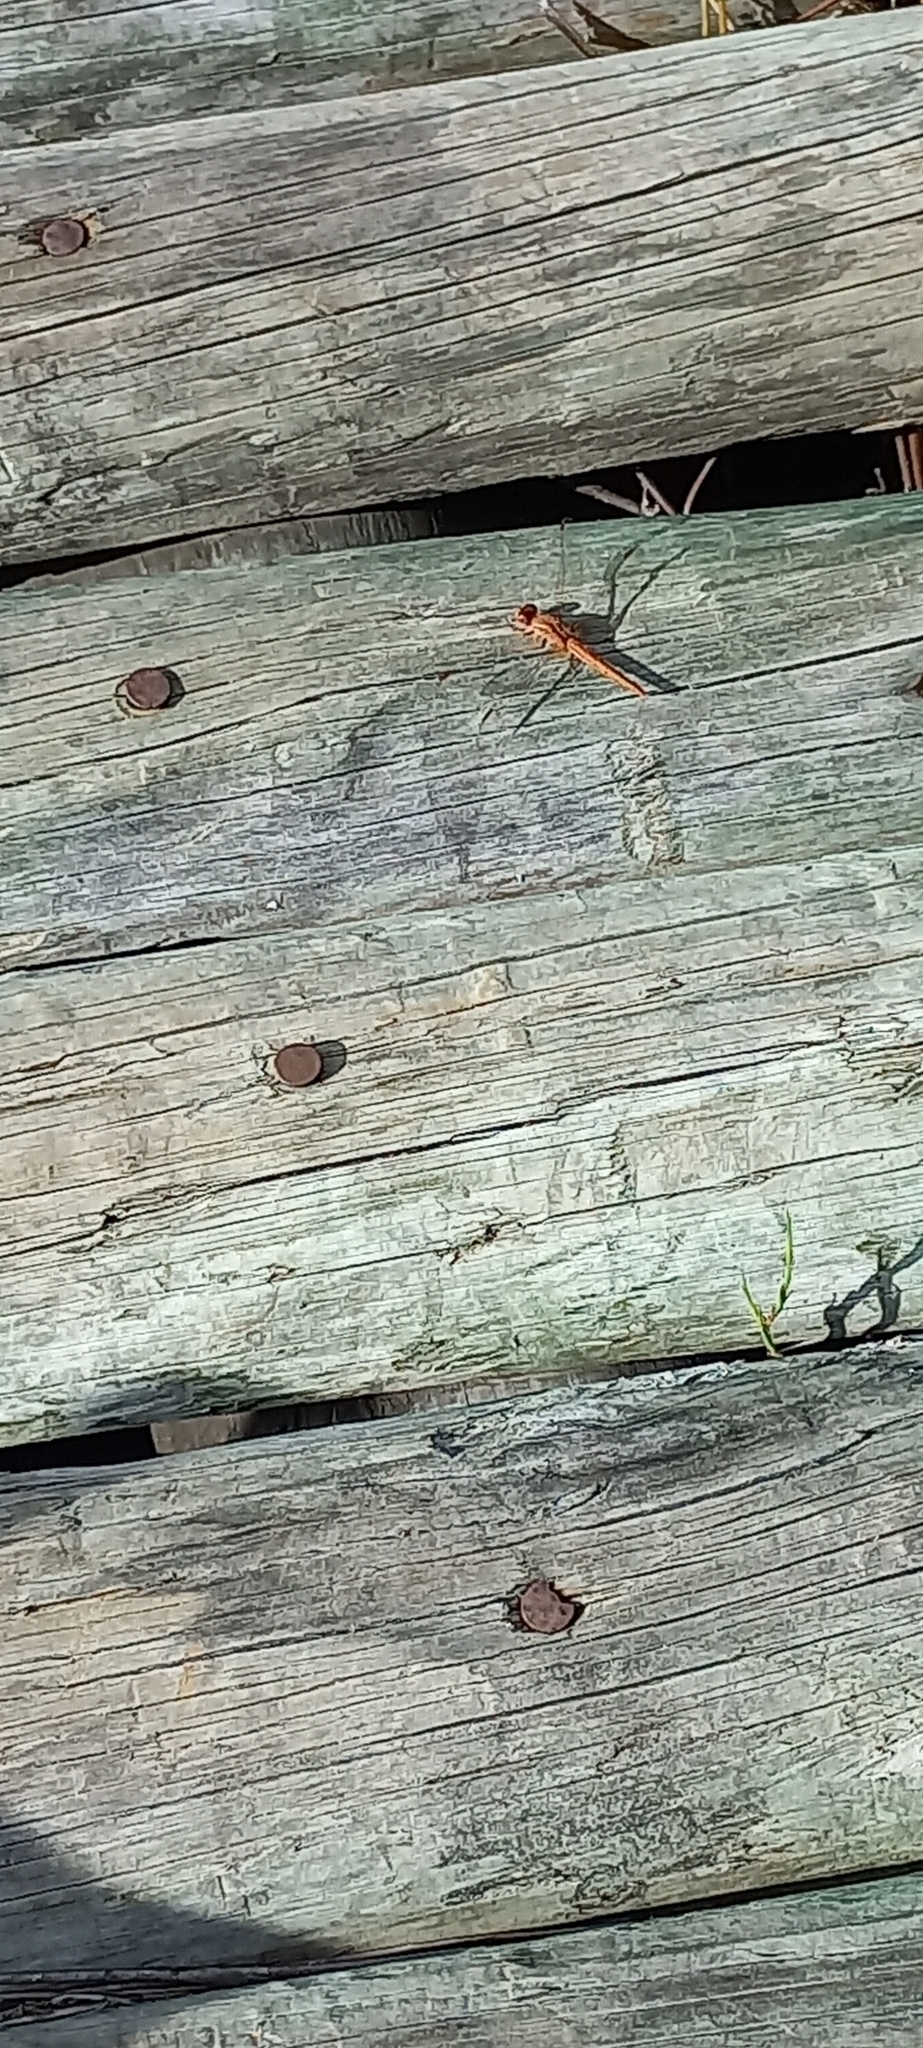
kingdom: Animalia
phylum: Arthropoda
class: Insecta
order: Odonata
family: Libellulidae
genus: Crocothemis
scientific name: Crocothemis sanguinolenta
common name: Little scarlet
